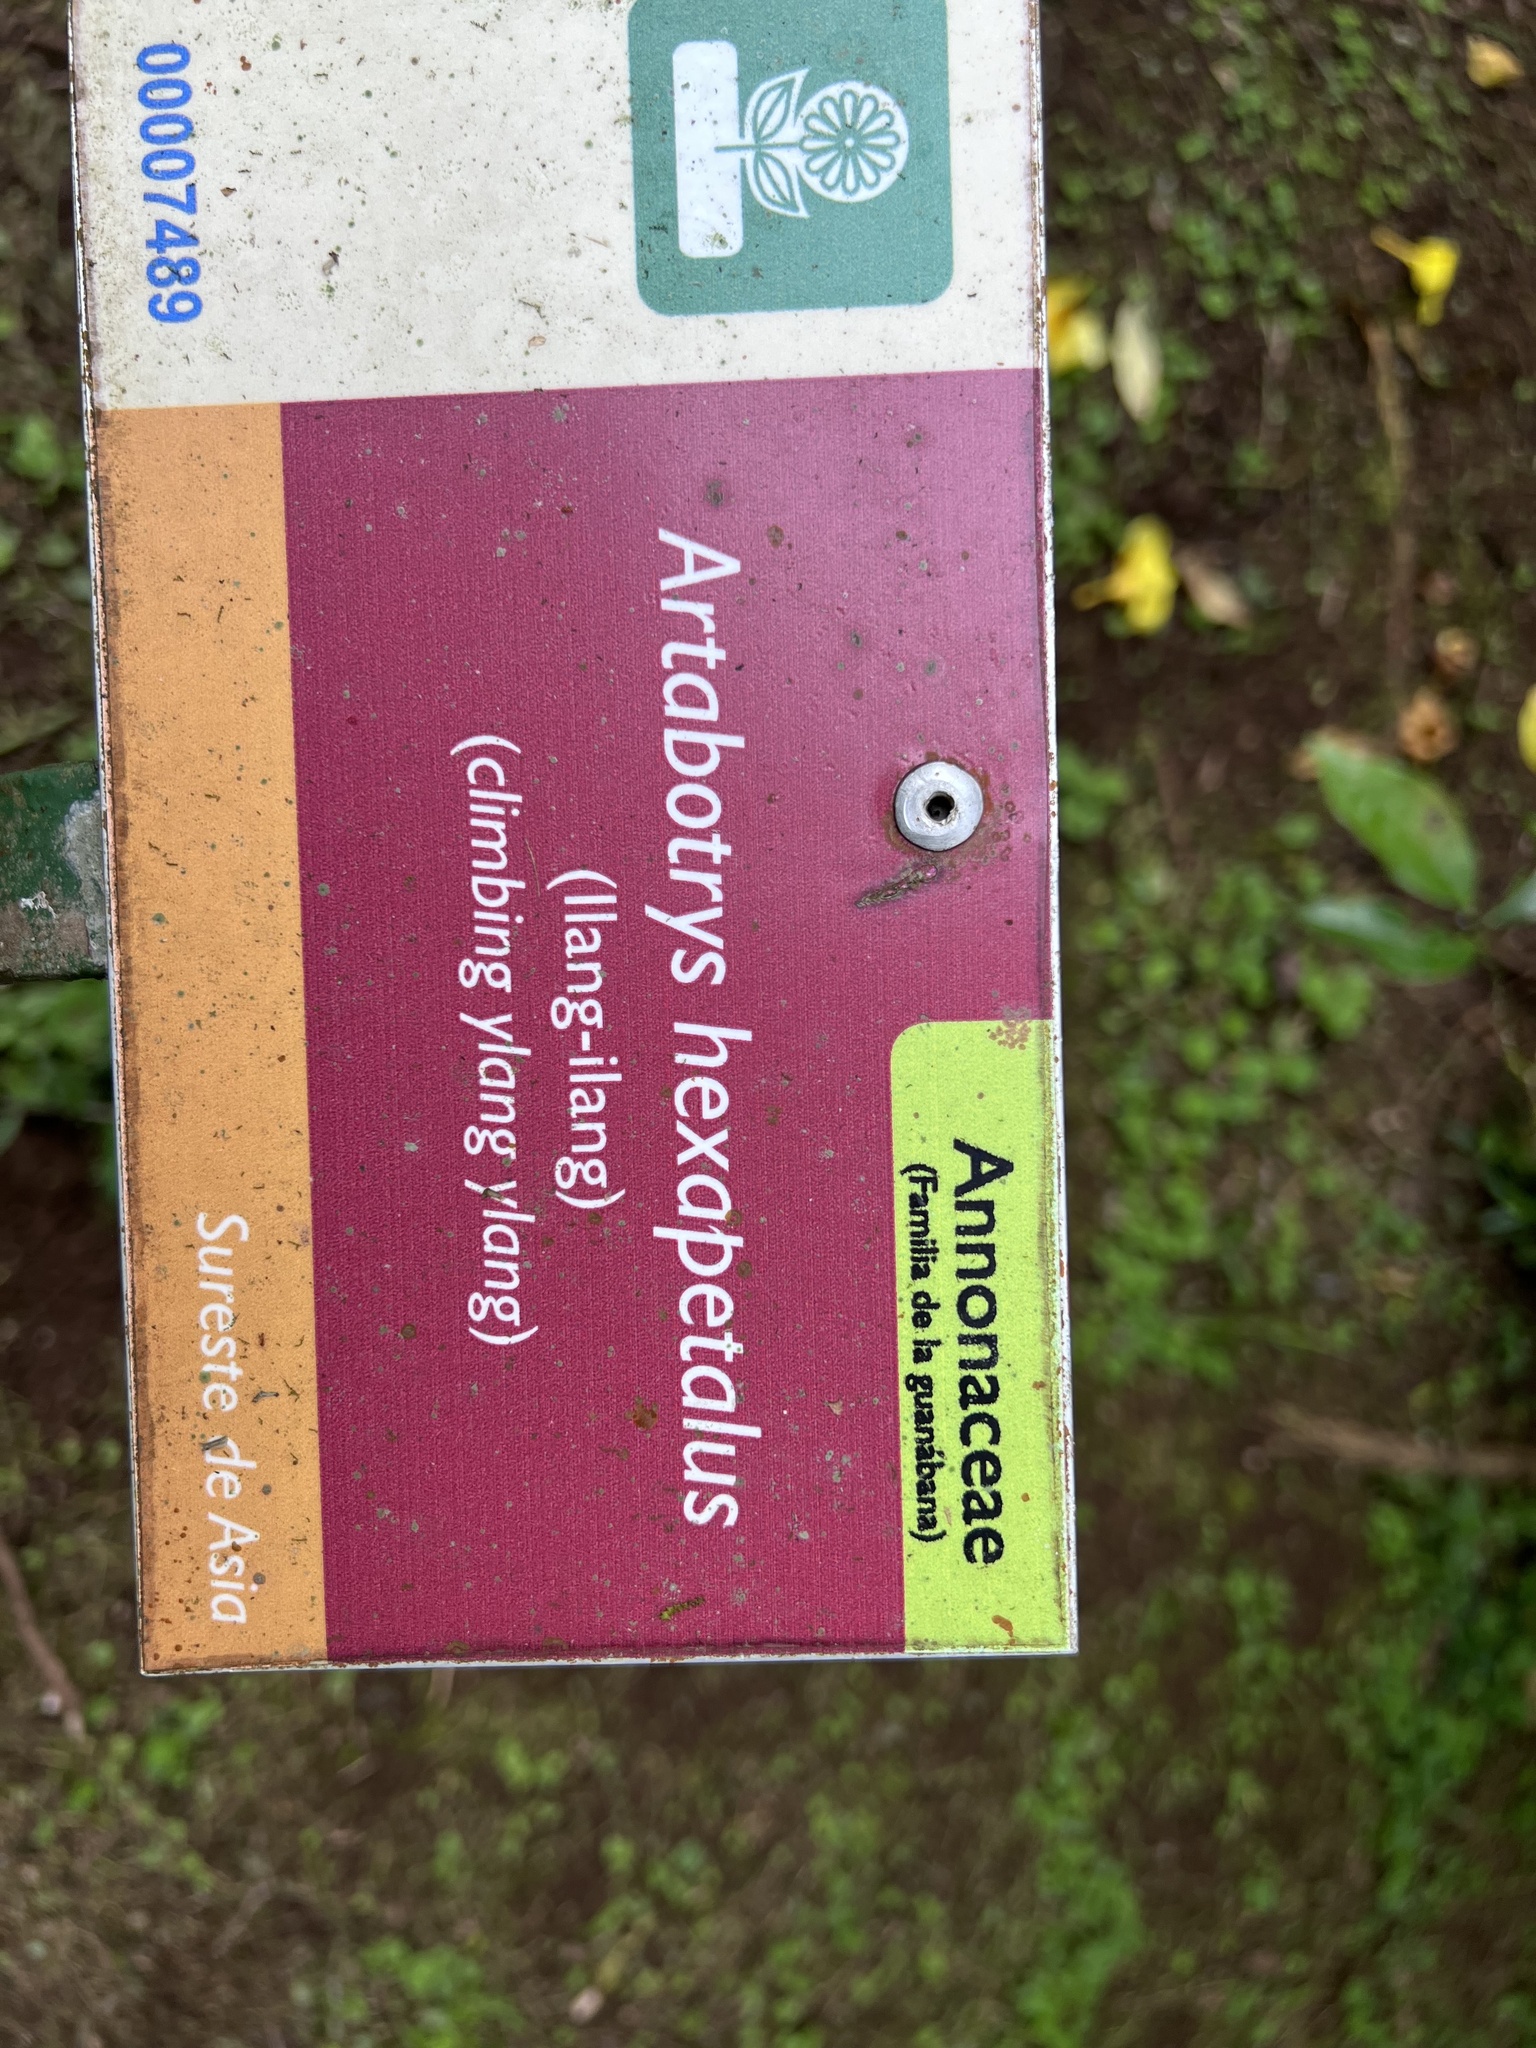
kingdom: Plantae
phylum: Tracheophyta
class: Magnoliopsida
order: Myrtales
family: Myrtaceae
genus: Eugenia
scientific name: Eugenia uniflora
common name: Surinam cherry
